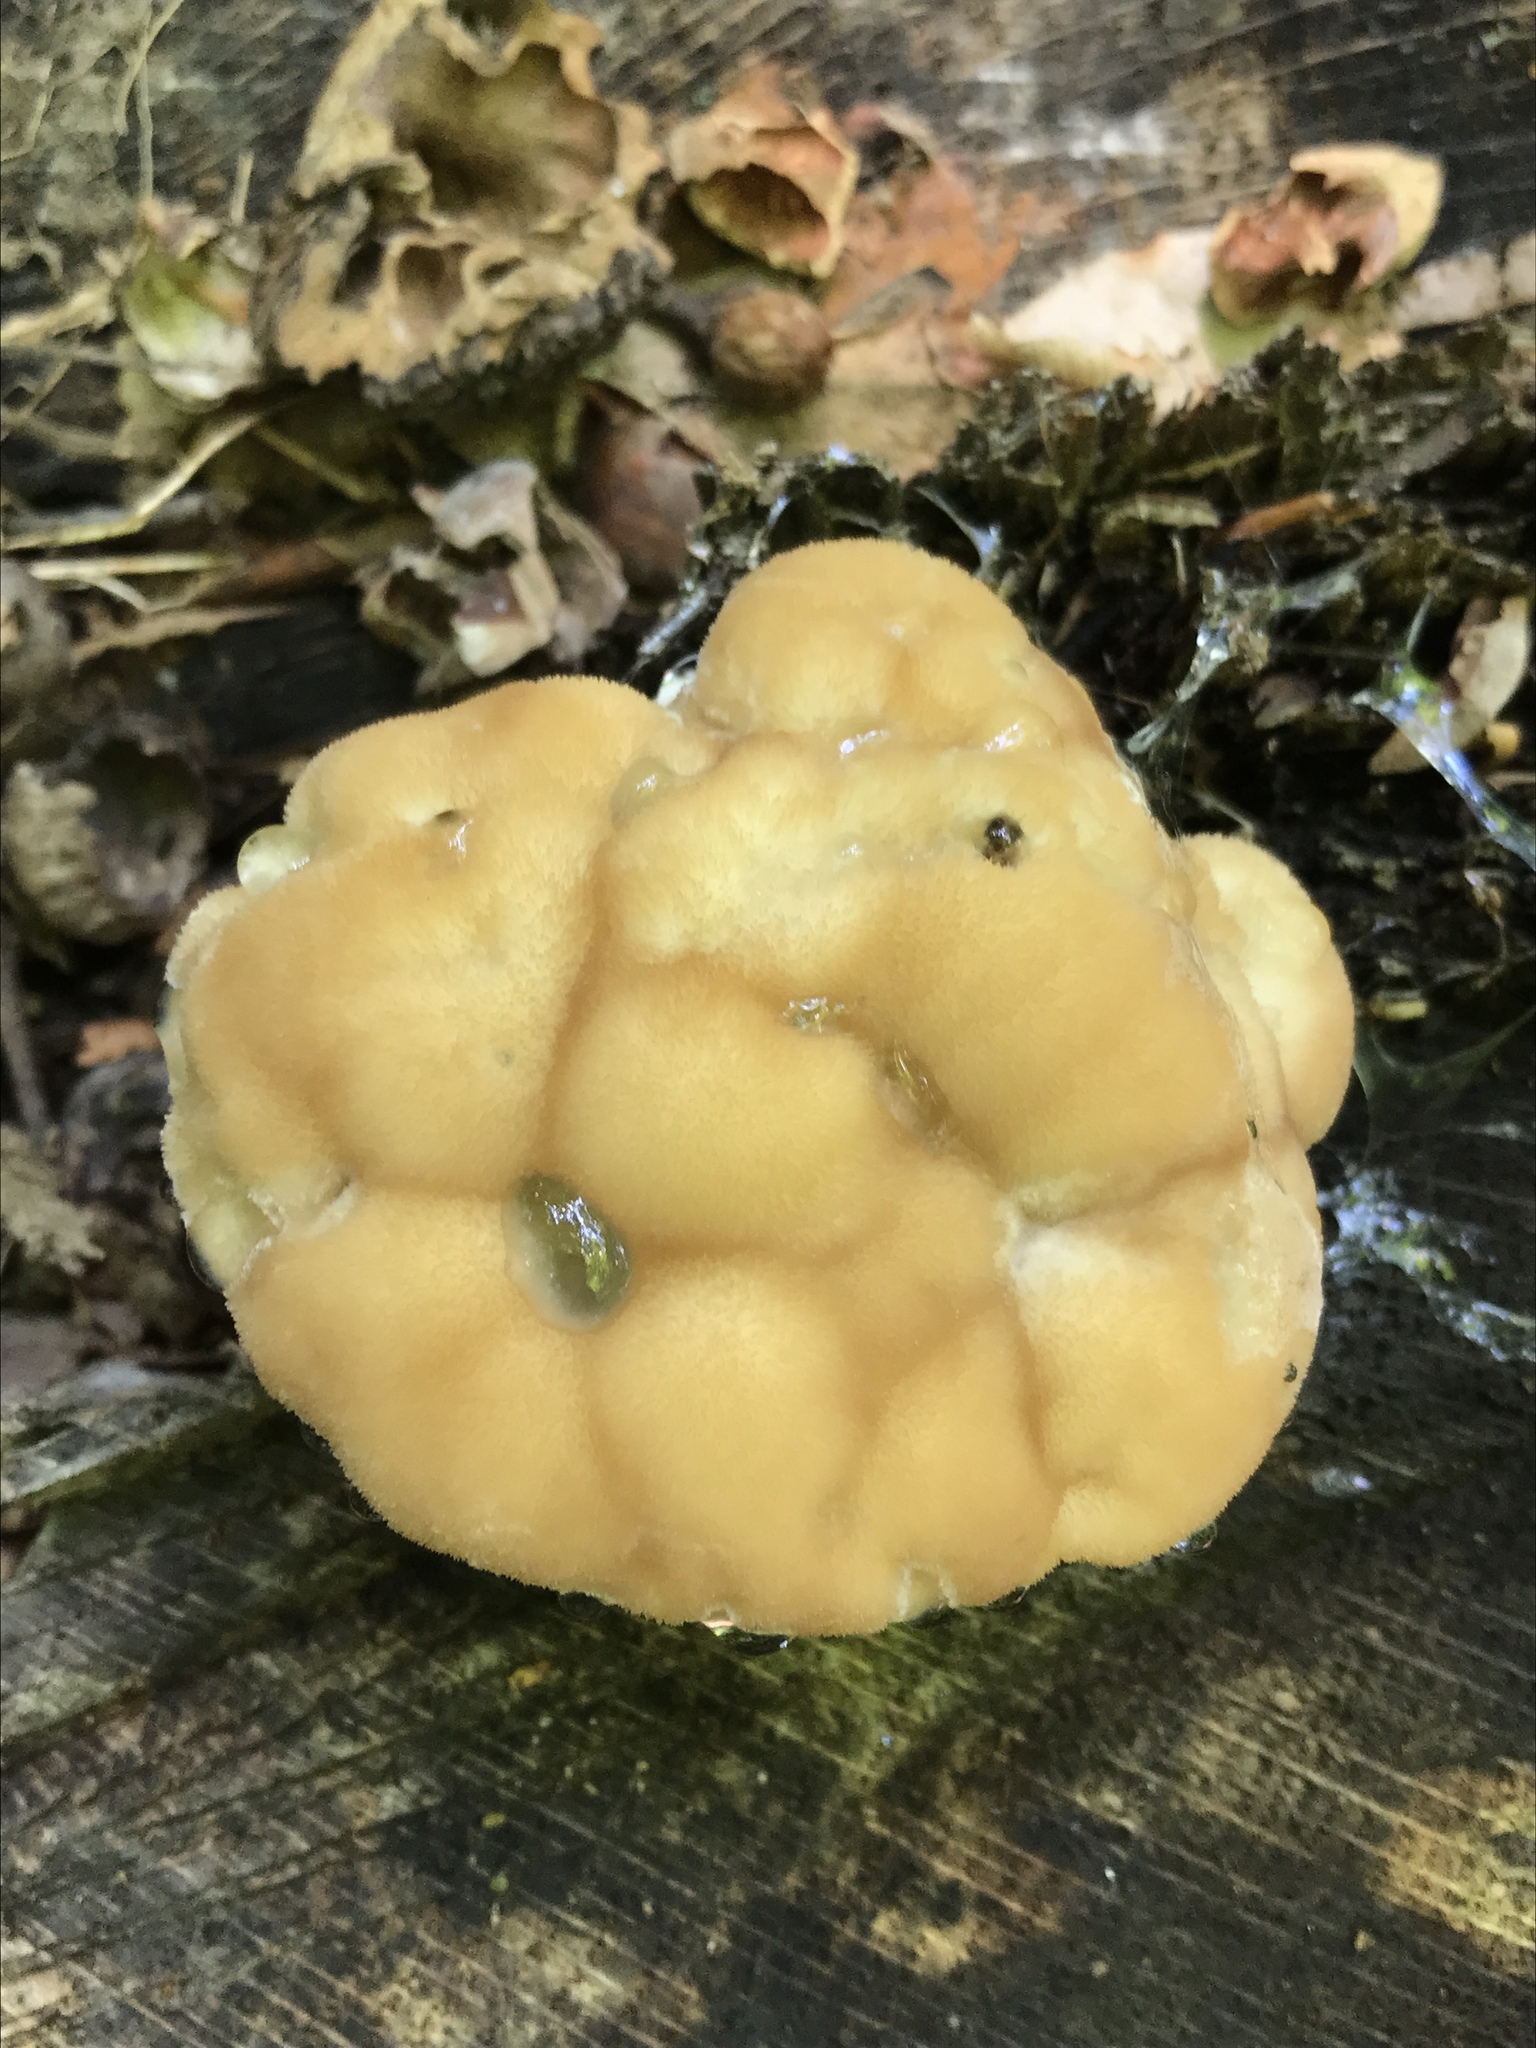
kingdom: Fungi
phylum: Basidiomycota
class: Agaricomycetes
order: Polyporales
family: Fomitopsidaceae
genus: Niveoporofomes
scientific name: Niveoporofomes spraguei
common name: Green cheese polypore
